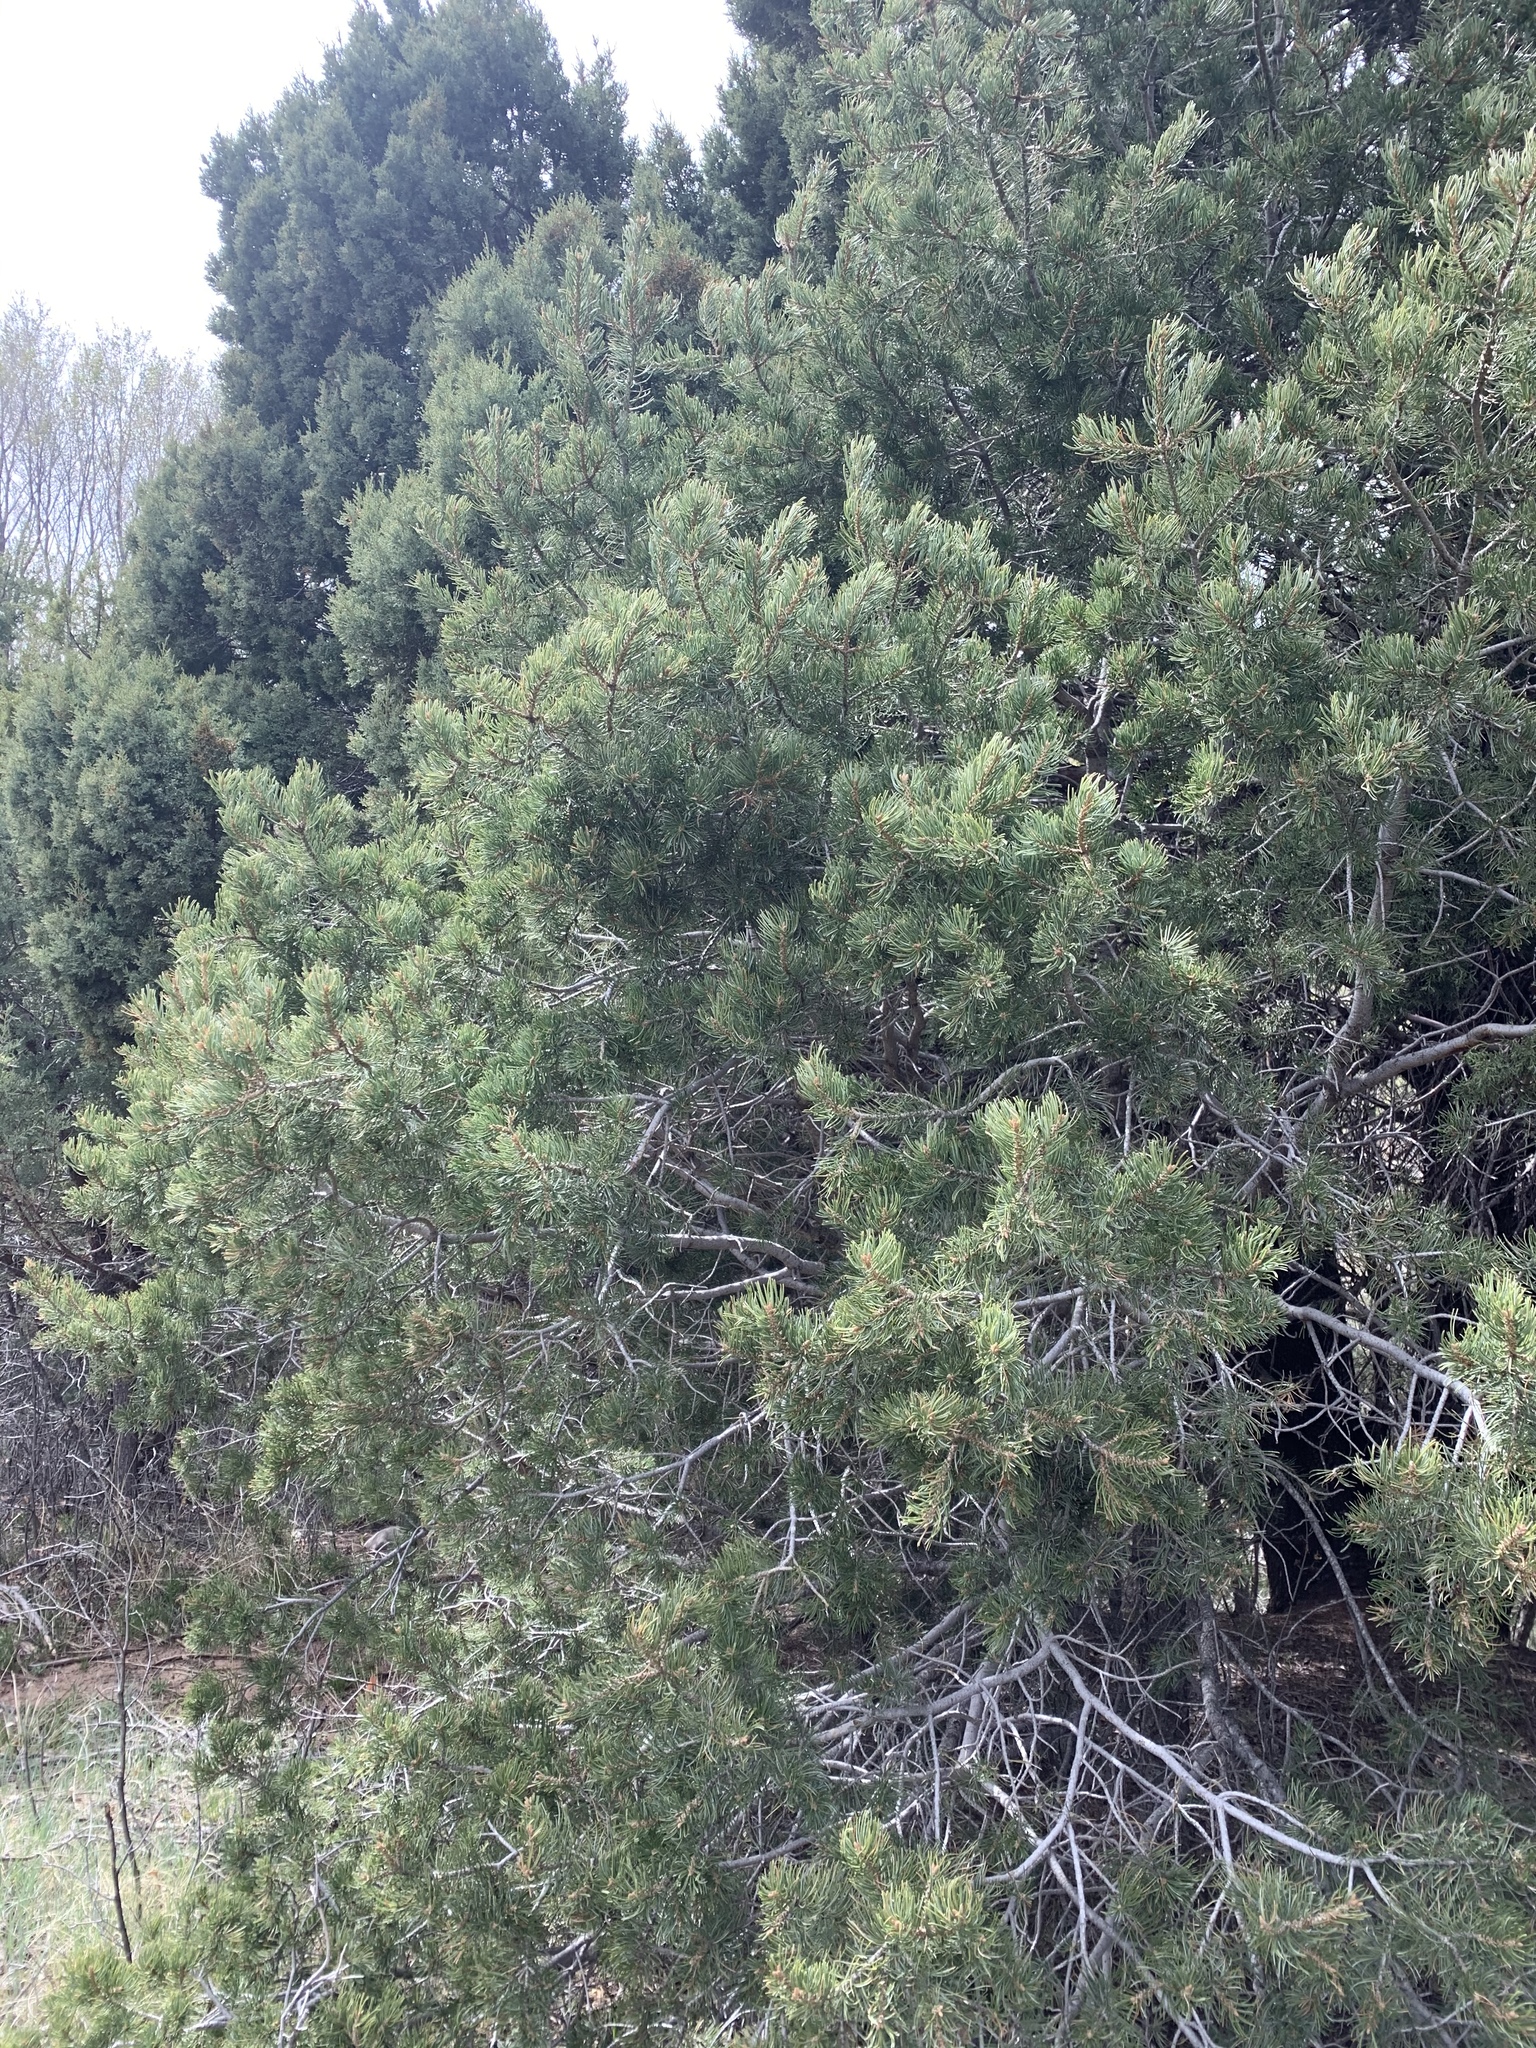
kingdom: Plantae
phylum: Tracheophyta
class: Pinopsida
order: Pinales
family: Pinaceae
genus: Pinus
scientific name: Pinus edulis
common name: Colorado pinyon
